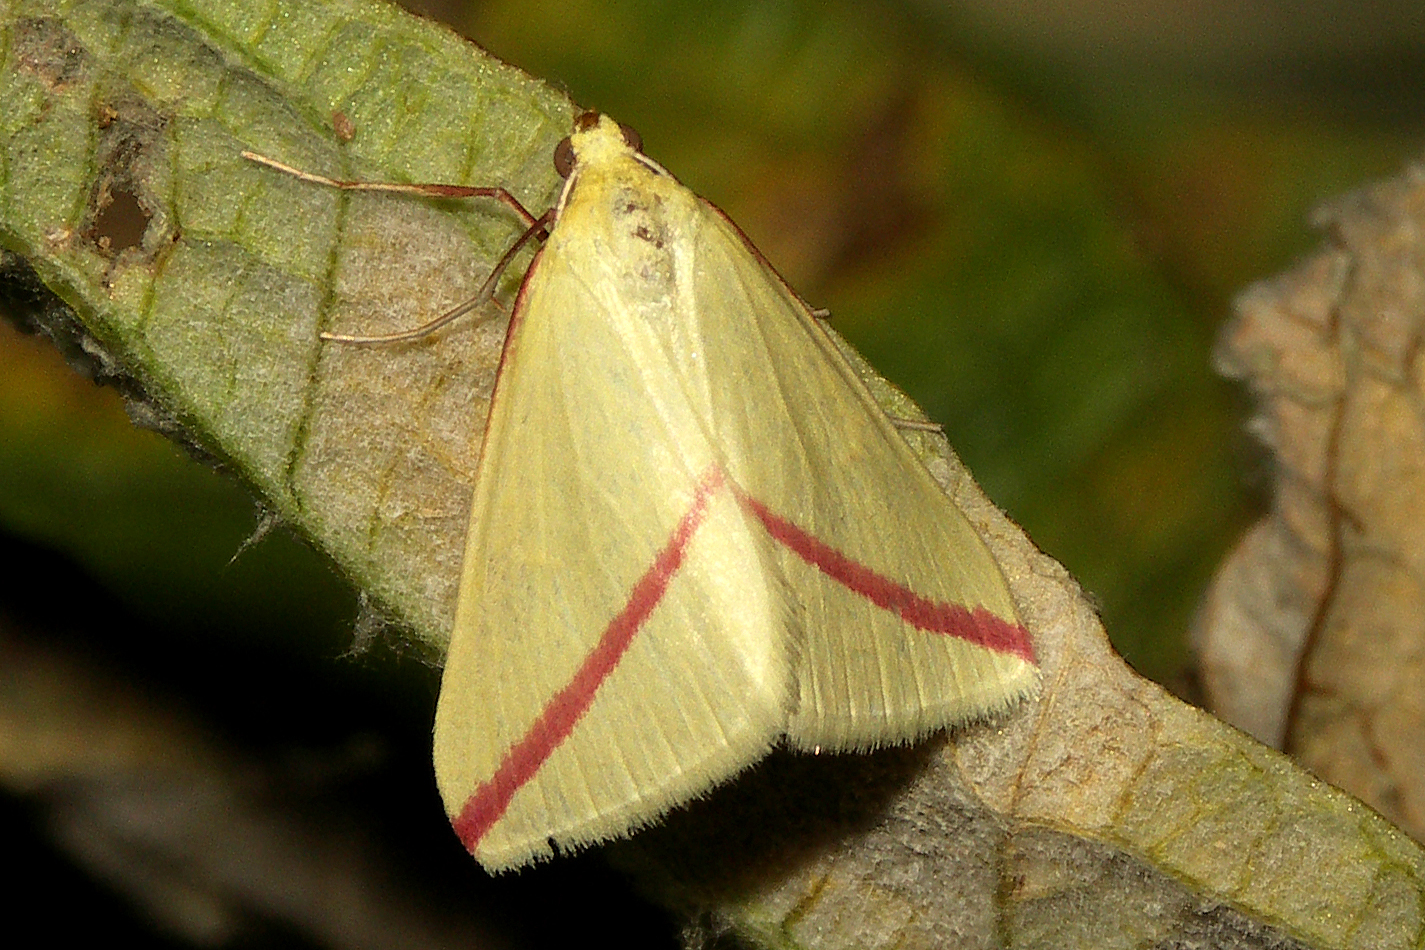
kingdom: Animalia
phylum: Arthropoda
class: Insecta
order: Lepidoptera
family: Geometridae
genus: Rhodometra
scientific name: Rhodometra sacraria
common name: Vestal
